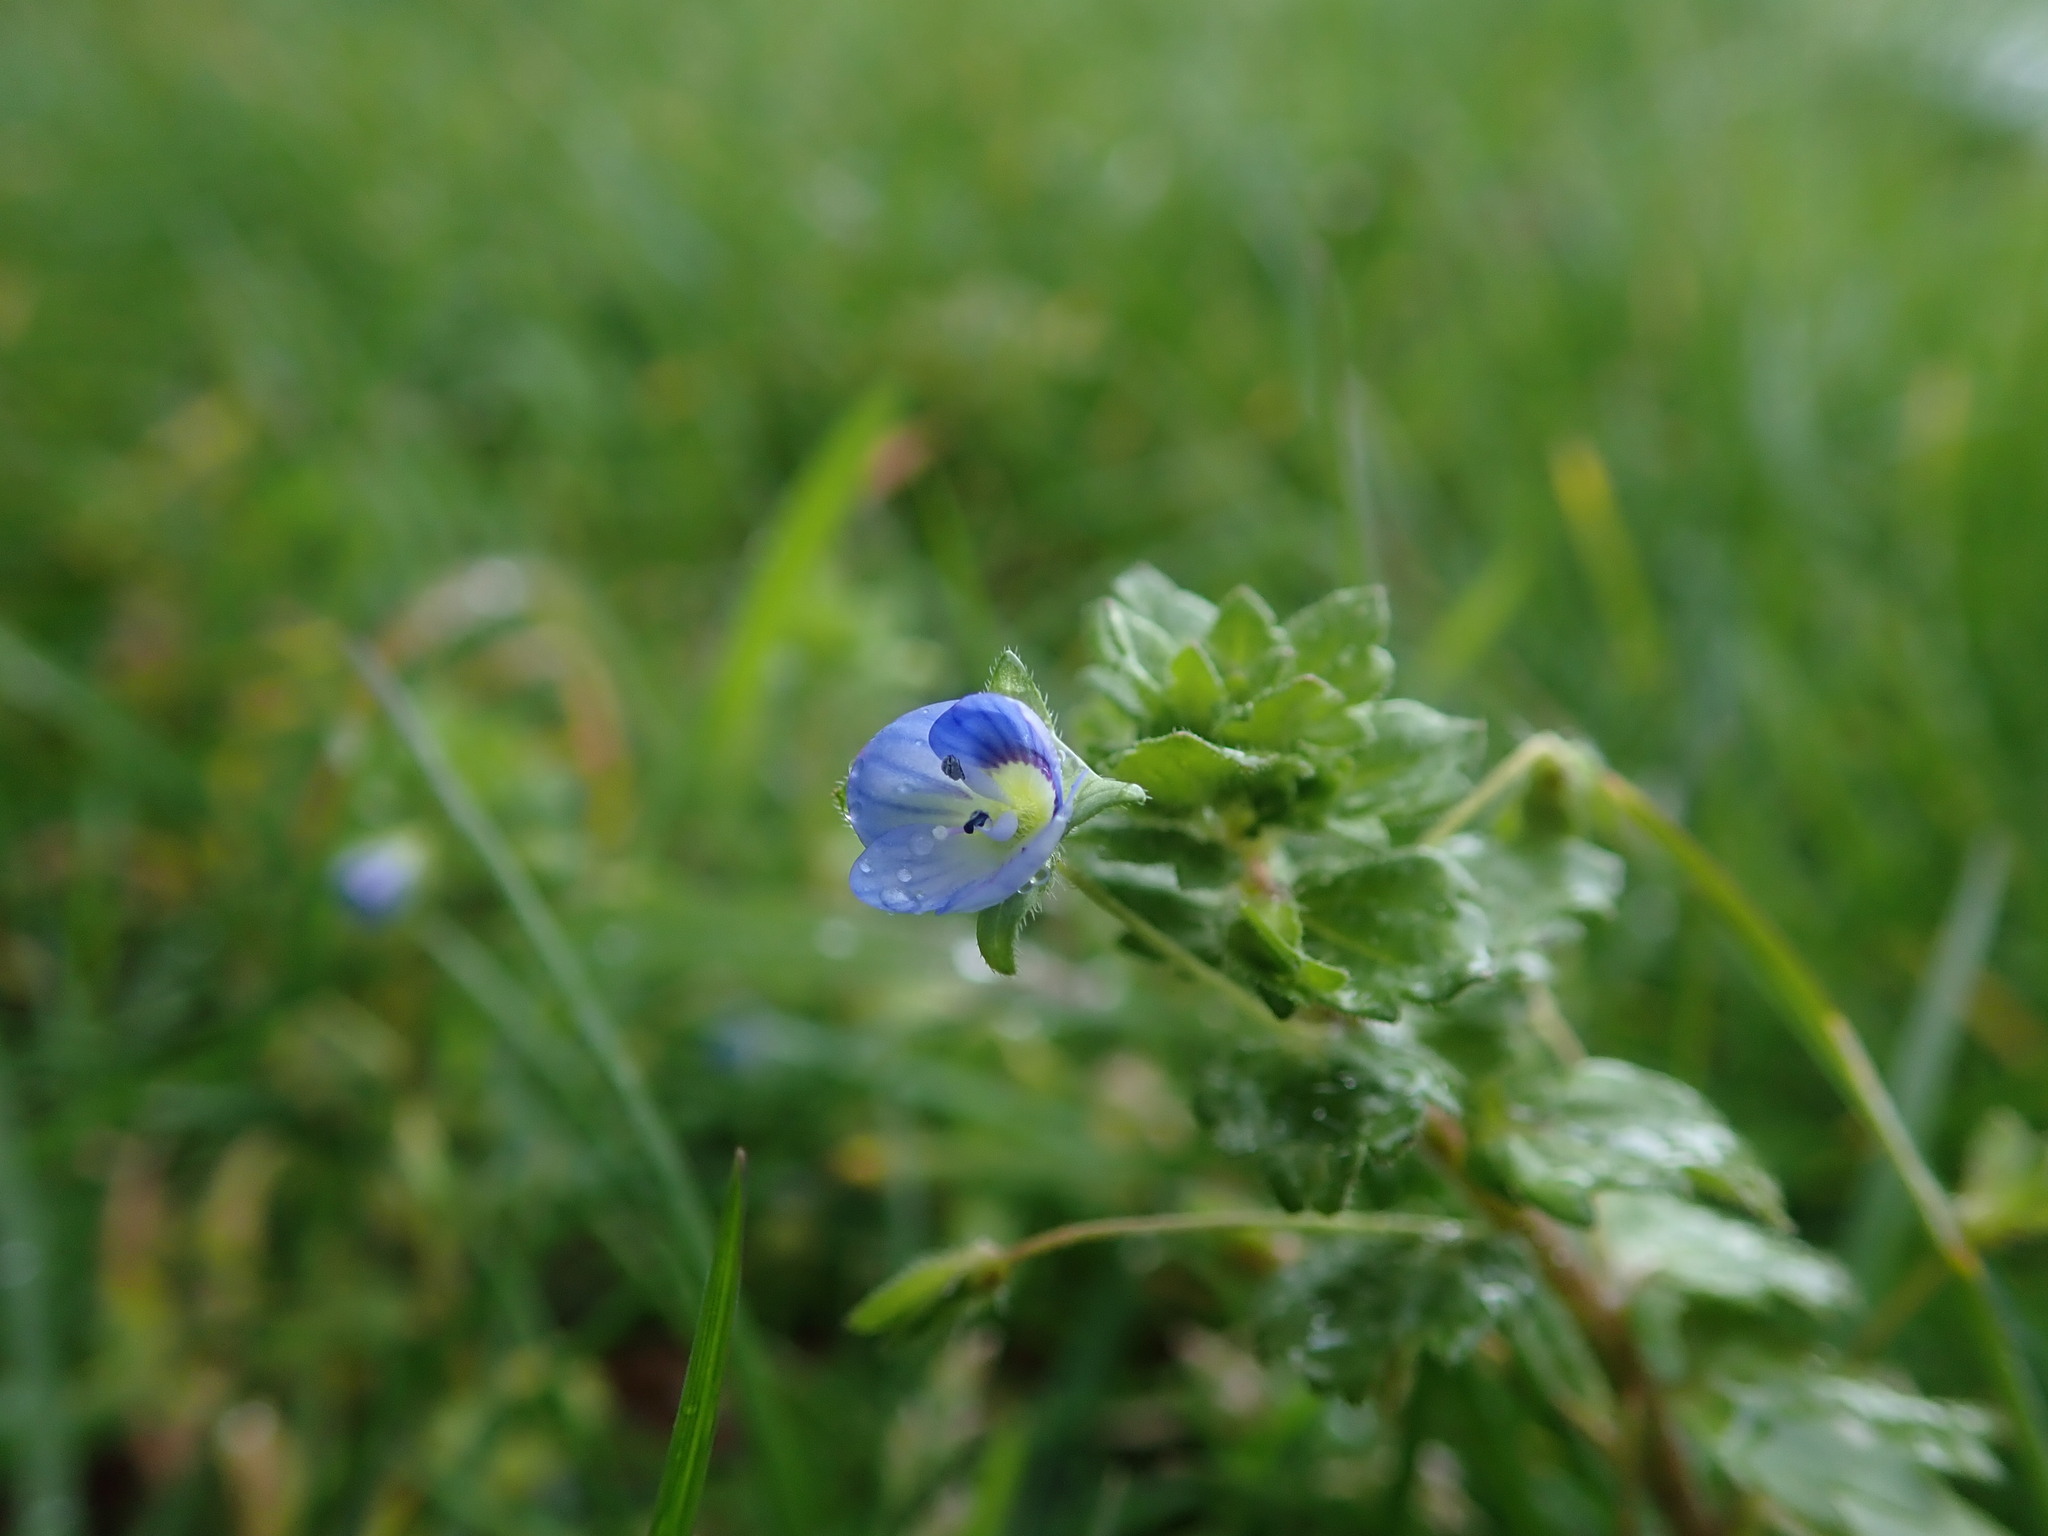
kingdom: Plantae
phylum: Tracheophyta
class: Magnoliopsida
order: Lamiales
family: Plantaginaceae
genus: Veronica
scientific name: Veronica persica
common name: Common field-speedwell
